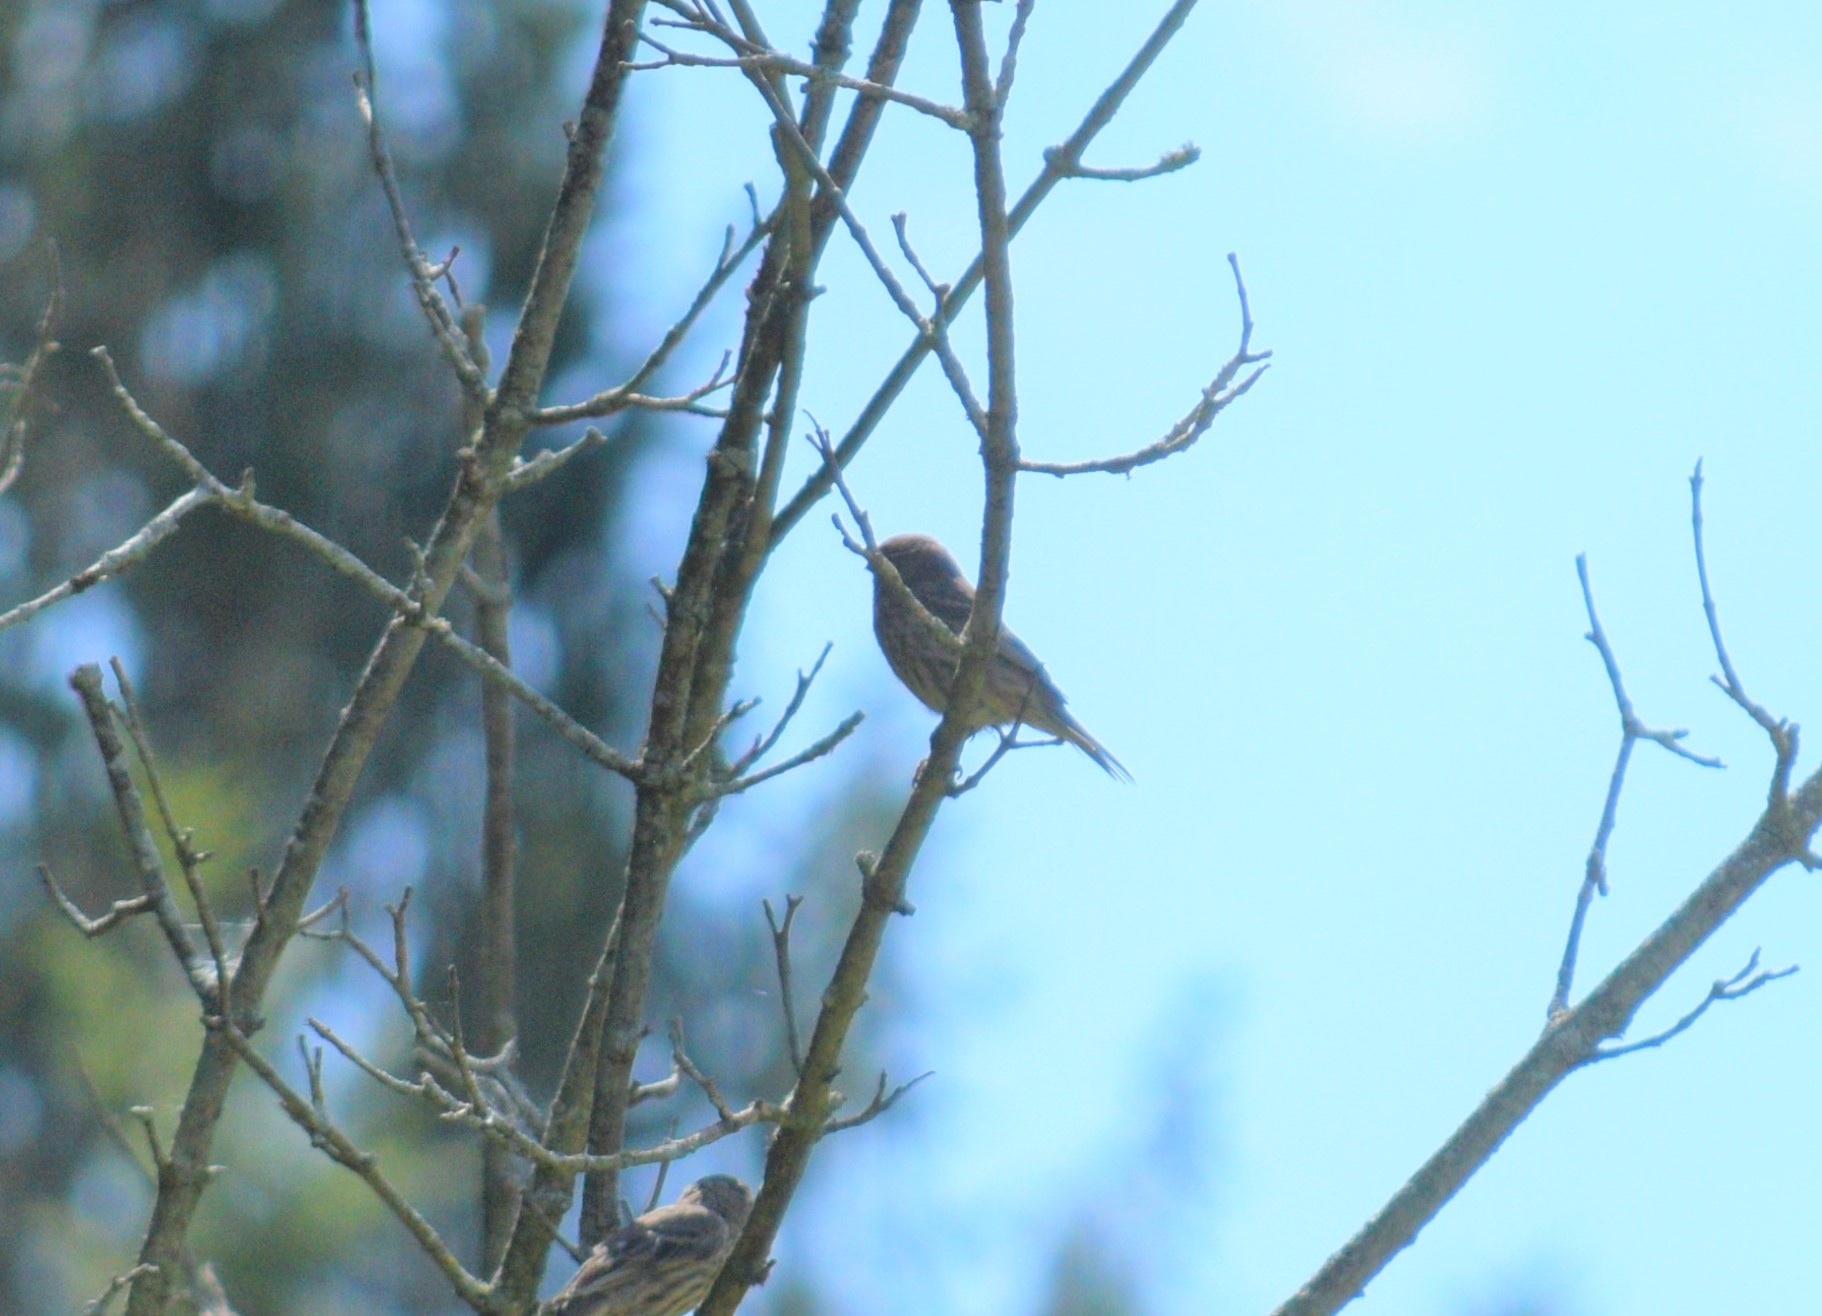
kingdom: Animalia
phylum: Chordata
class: Aves
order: Passeriformes
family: Fringillidae
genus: Haemorhous
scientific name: Haemorhous mexicanus
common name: House finch
